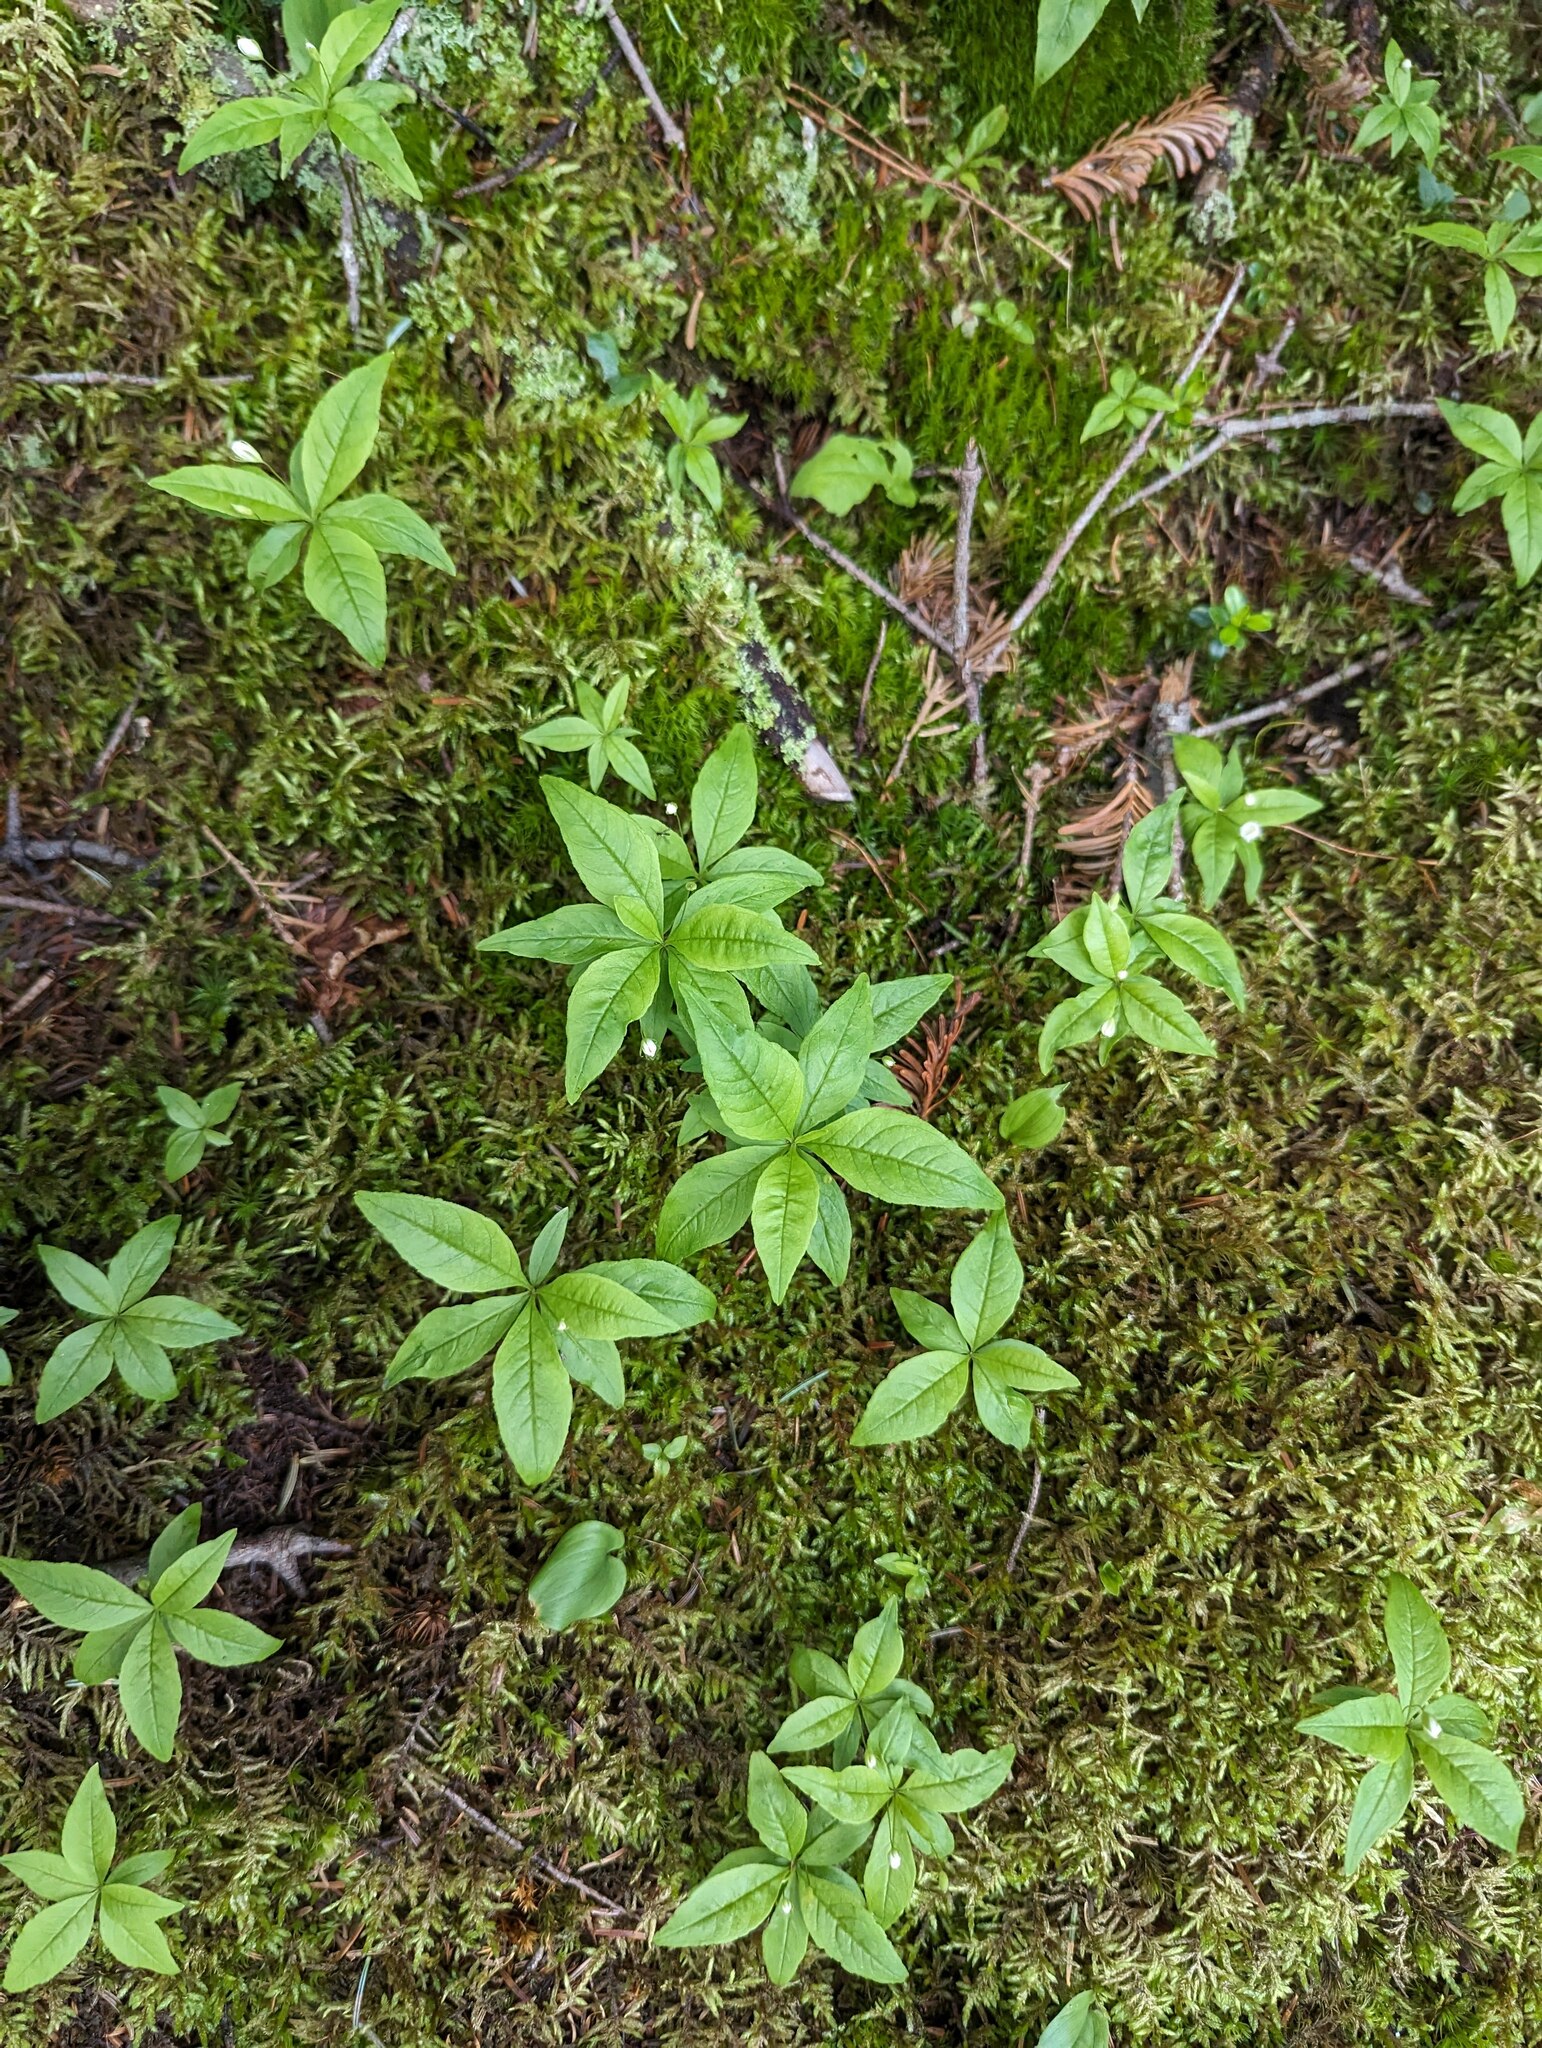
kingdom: Plantae
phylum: Tracheophyta
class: Magnoliopsida
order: Ericales
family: Primulaceae
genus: Lysimachia
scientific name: Lysimachia borealis
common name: American starflower
